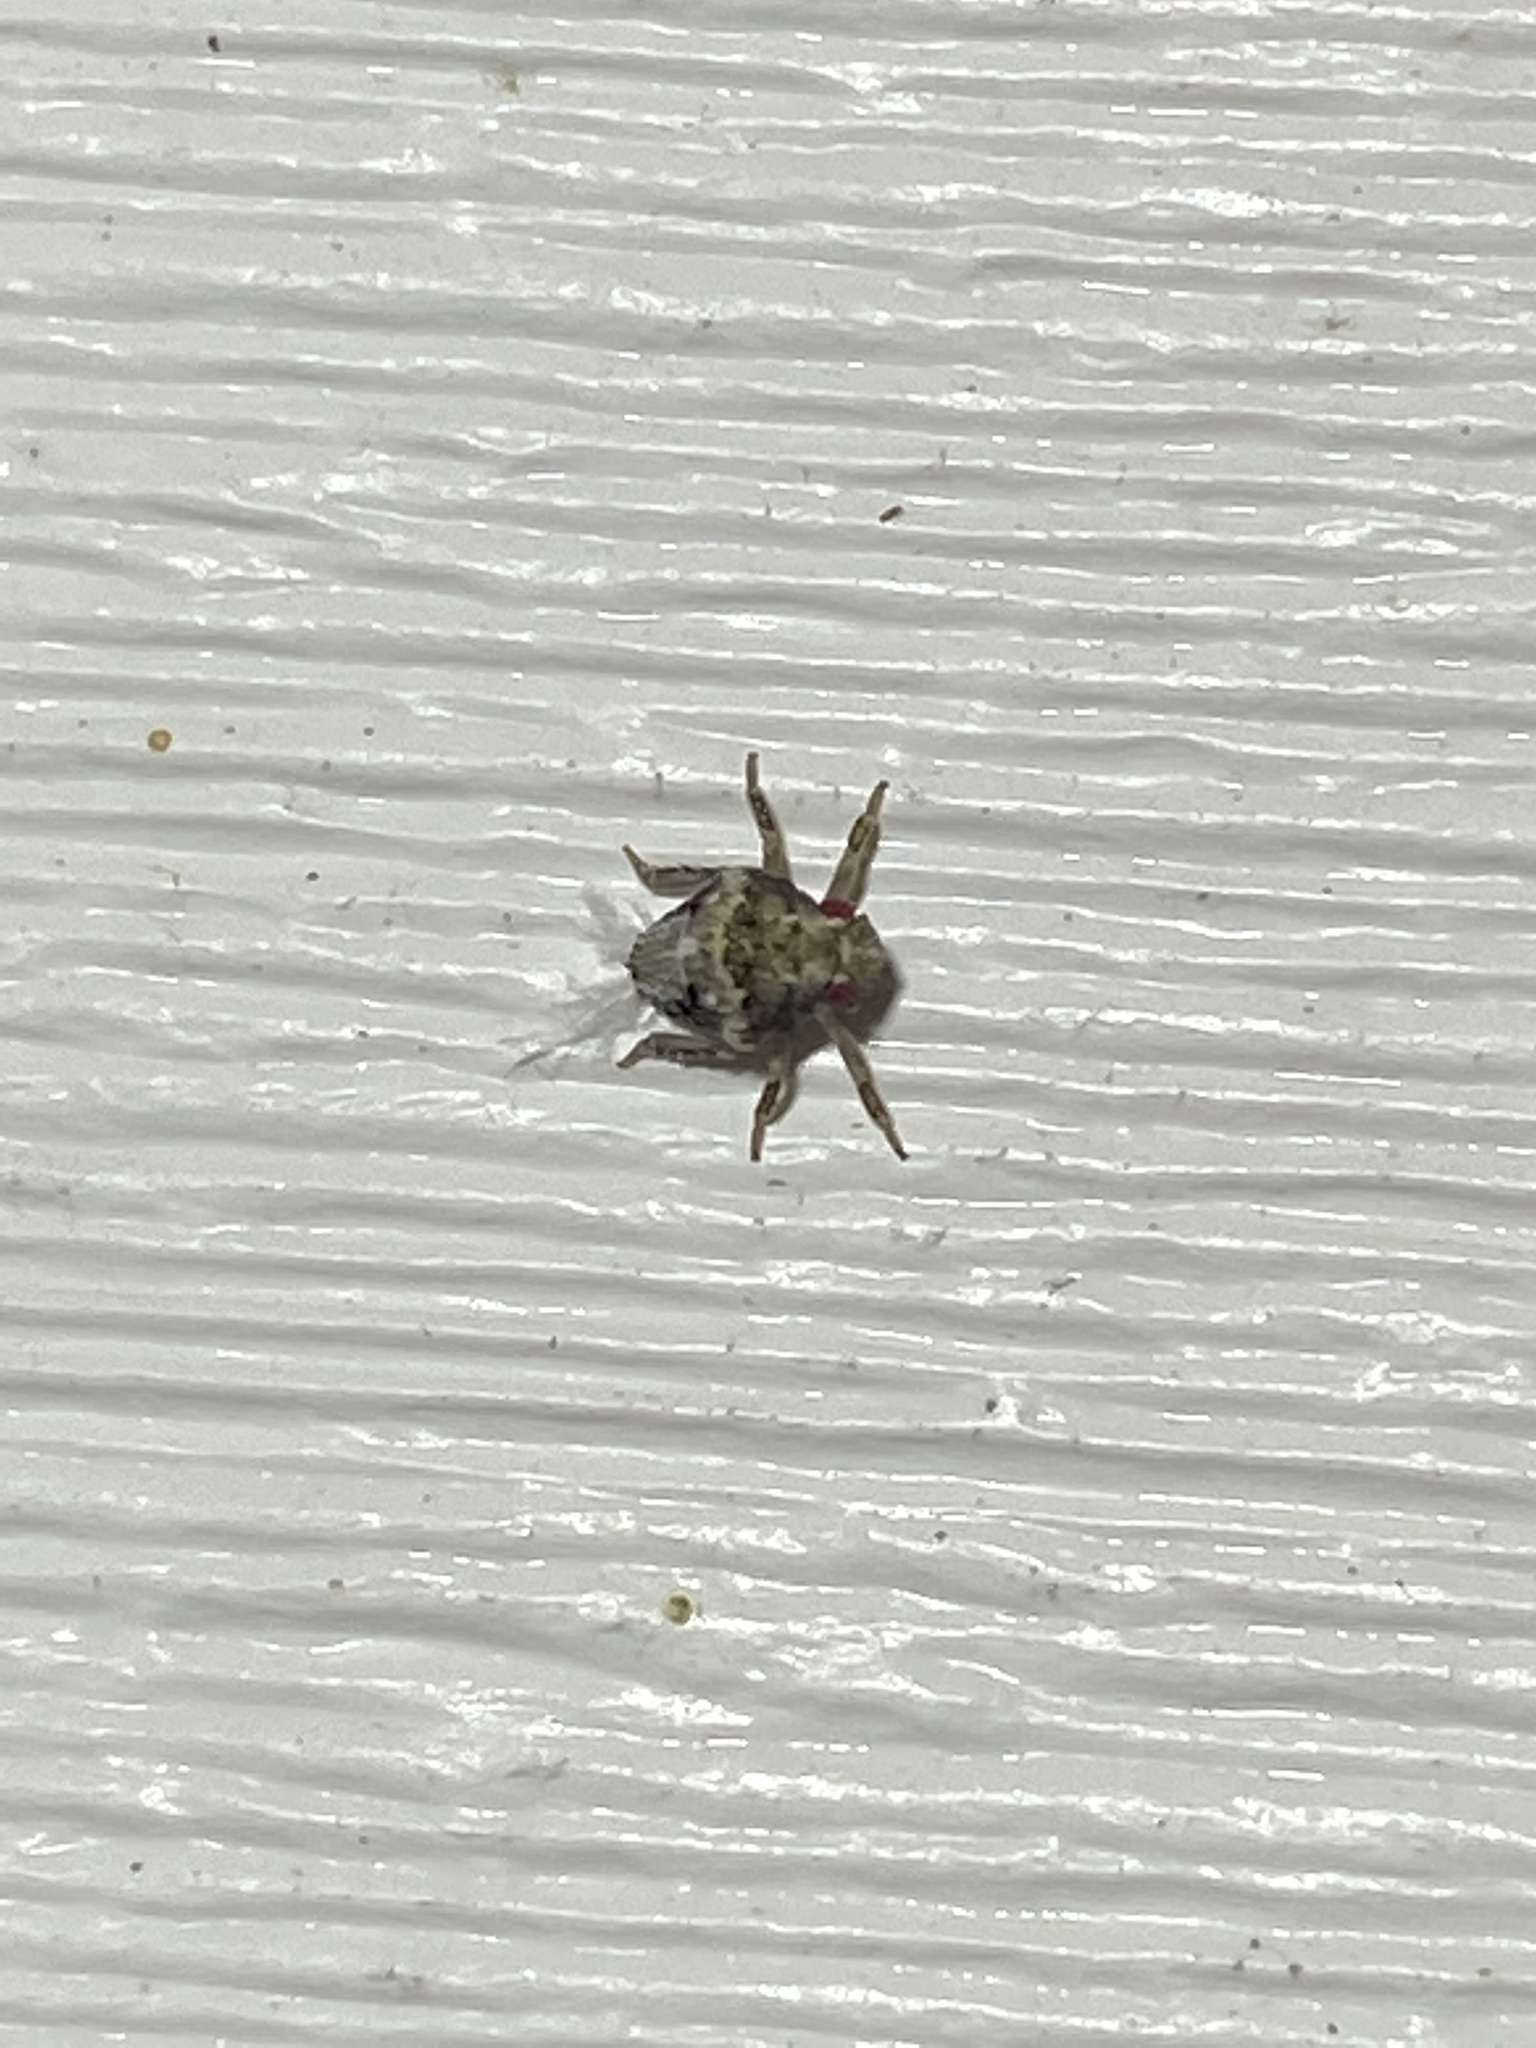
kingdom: Animalia
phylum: Arthropoda
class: Insecta
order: Hemiptera
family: Acanaloniidae
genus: Acanalonia
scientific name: Acanalonia bivittata
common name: Two-striped planthopper
